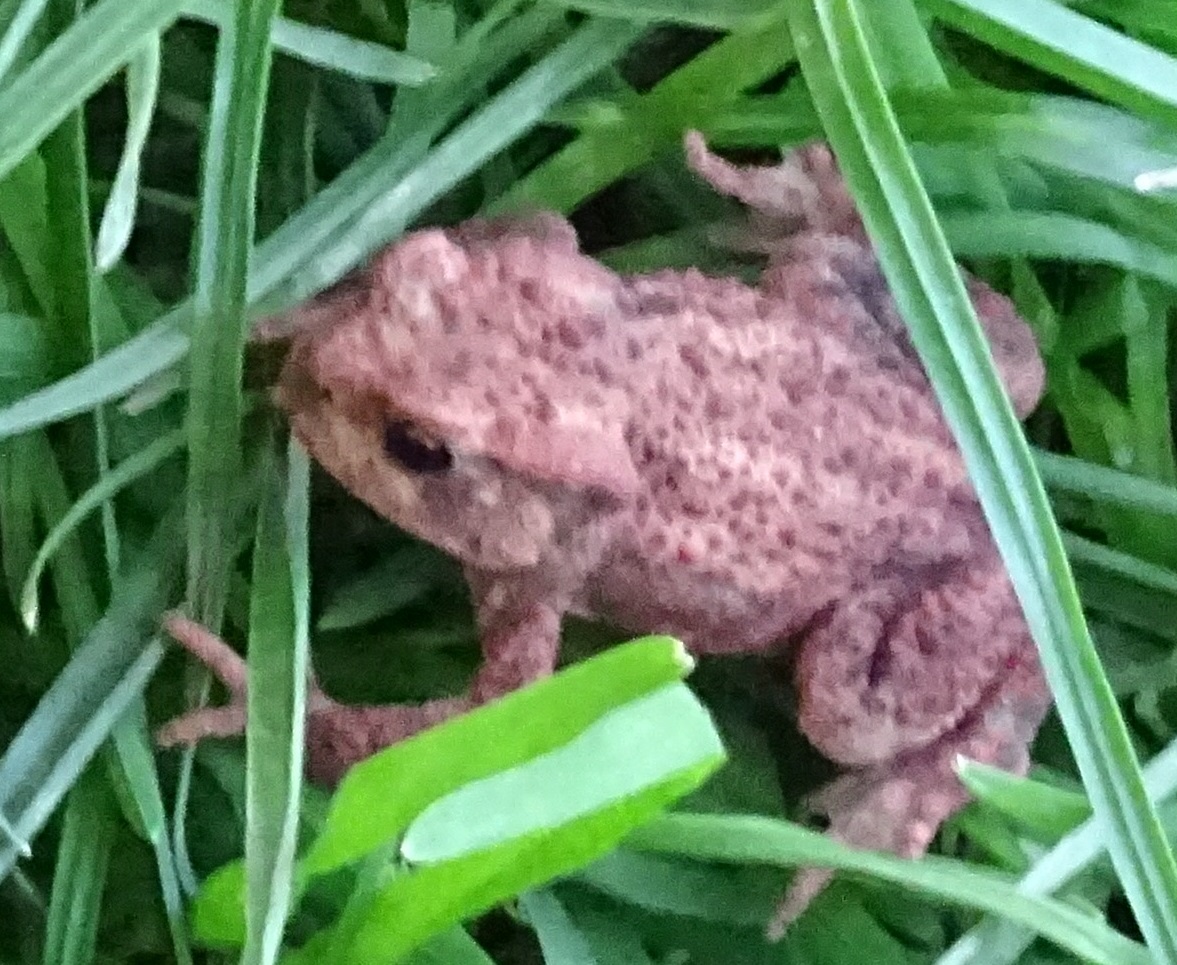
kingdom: Animalia
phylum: Chordata
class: Amphibia
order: Anura
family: Bufonidae
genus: Bufo
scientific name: Bufo bufo
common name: Common toad
